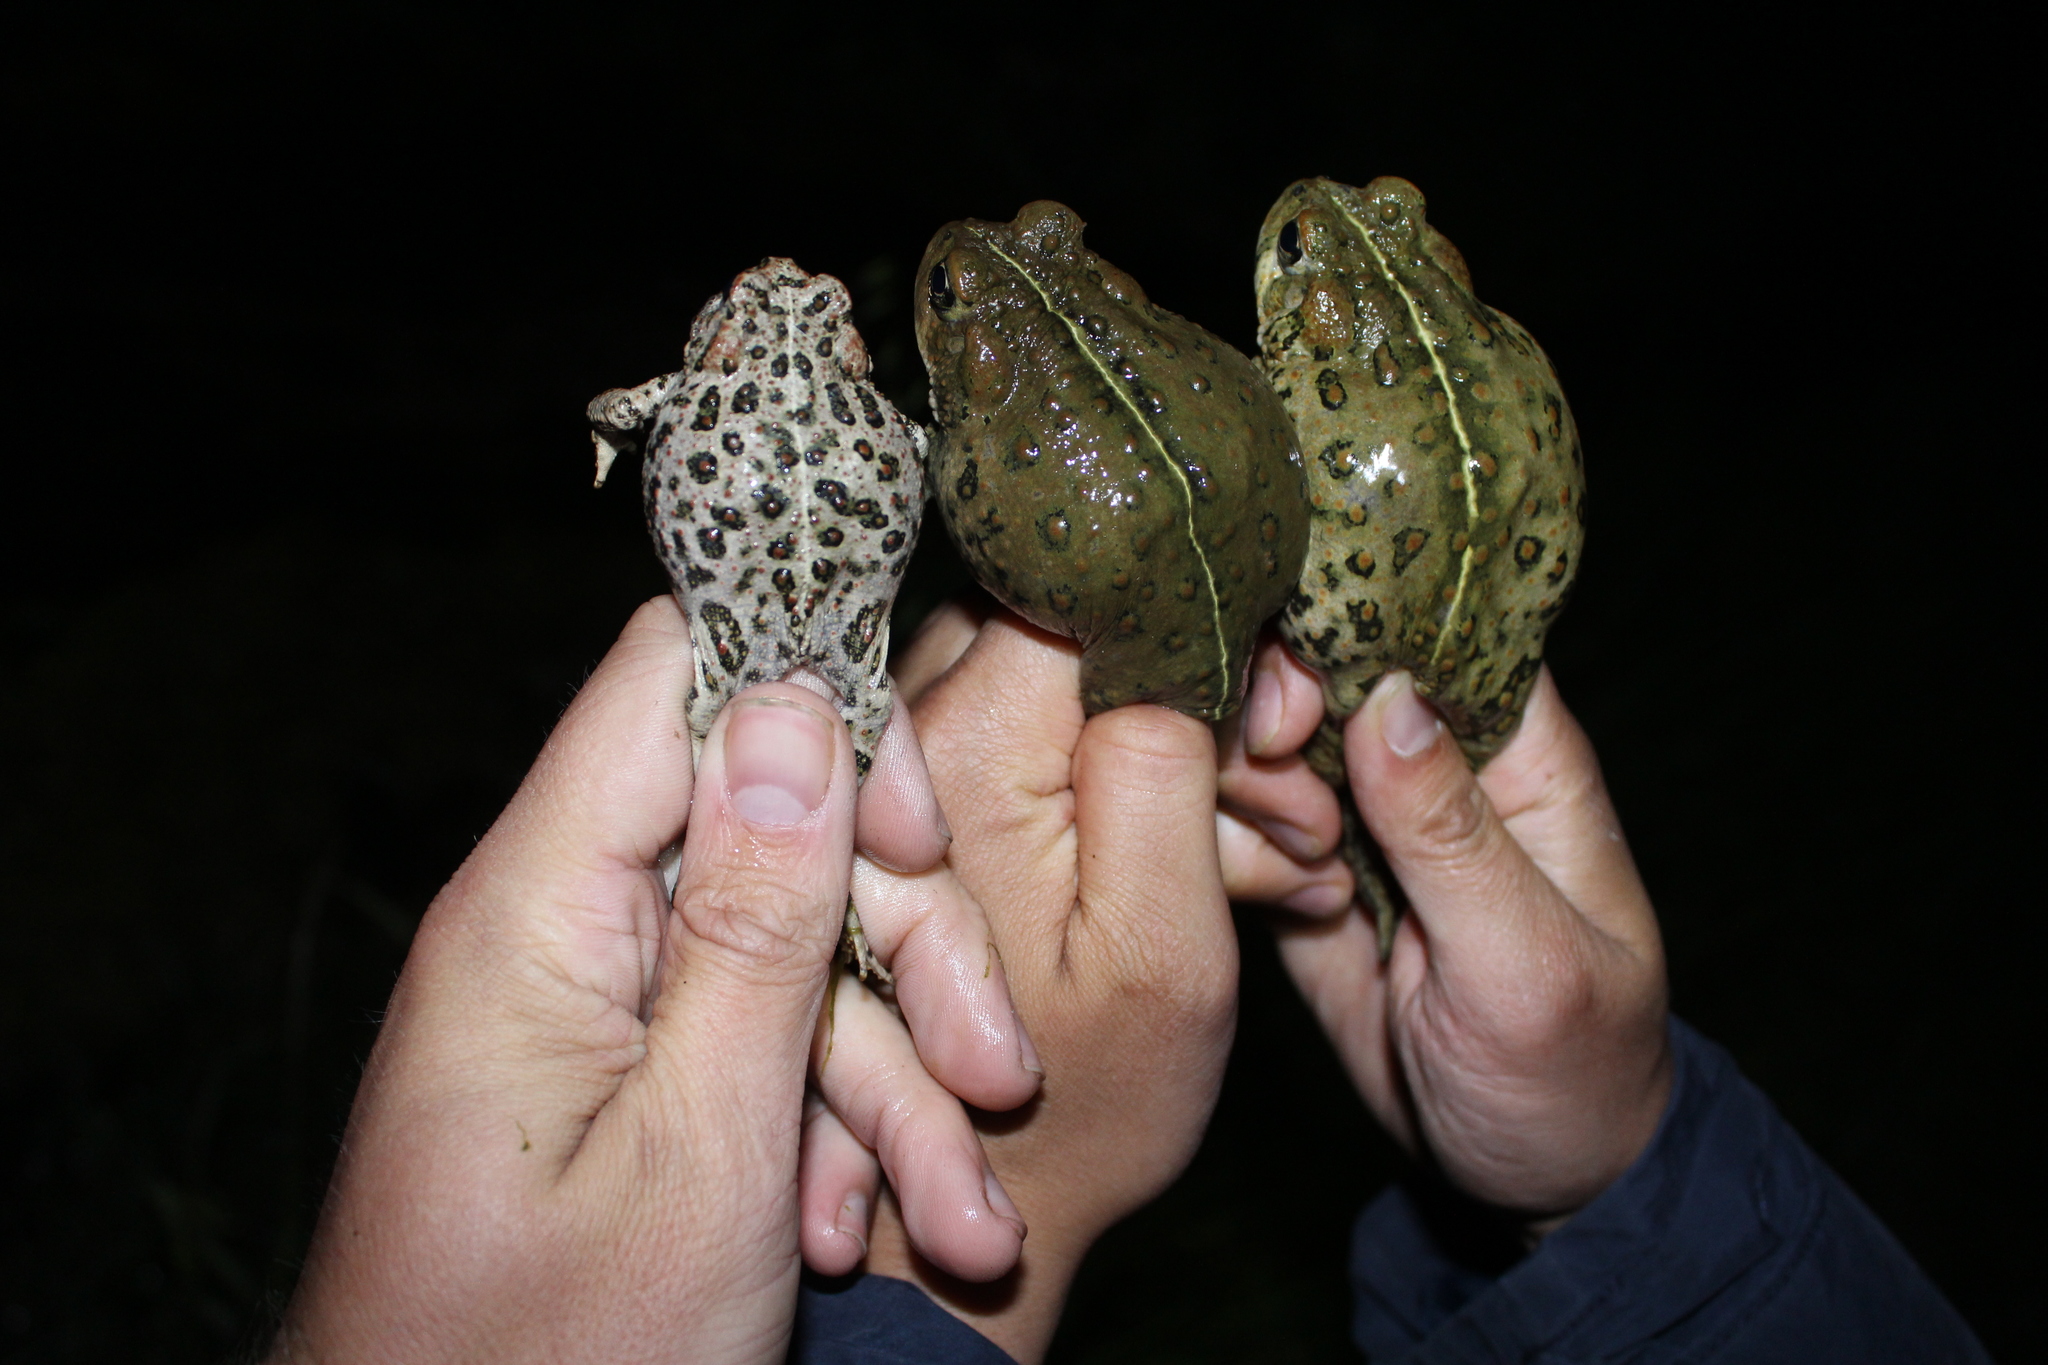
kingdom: Animalia
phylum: Chordata
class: Amphibia
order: Anura
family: Bufonidae
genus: Anaxyrus
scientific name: Anaxyrus boreas
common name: Western toad
